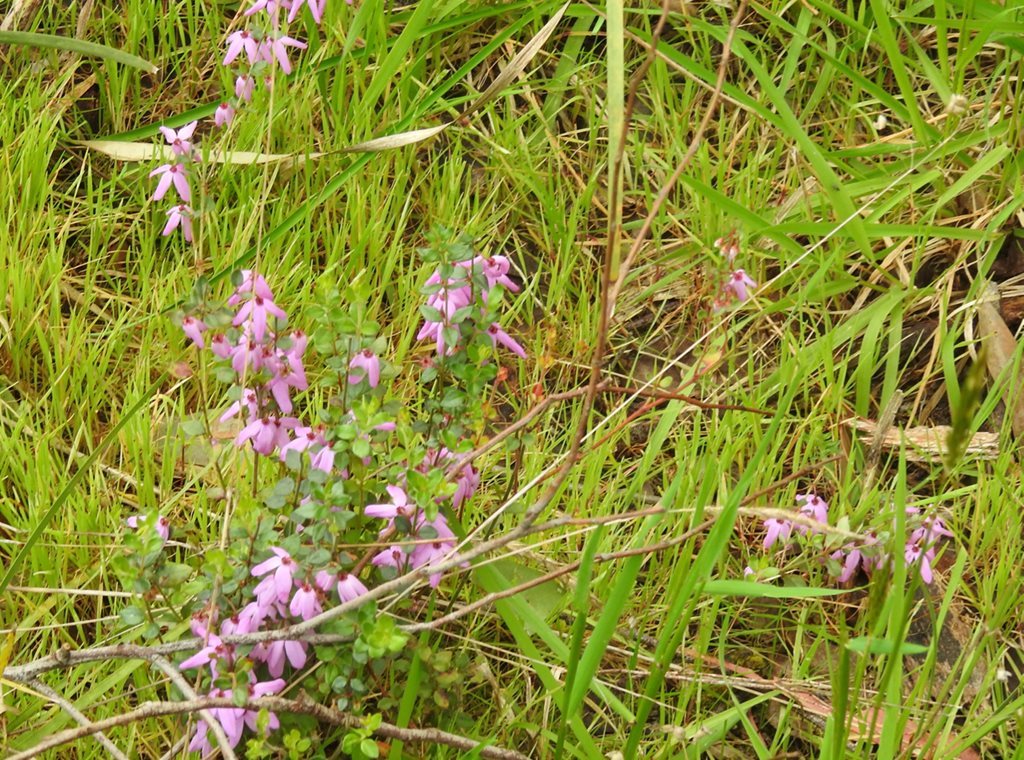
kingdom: Plantae
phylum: Tracheophyta
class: Magnoliopsida
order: Oxalidales
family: Elaeocarpaceae
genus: Tetratheca
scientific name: Tetratheca ciliata
